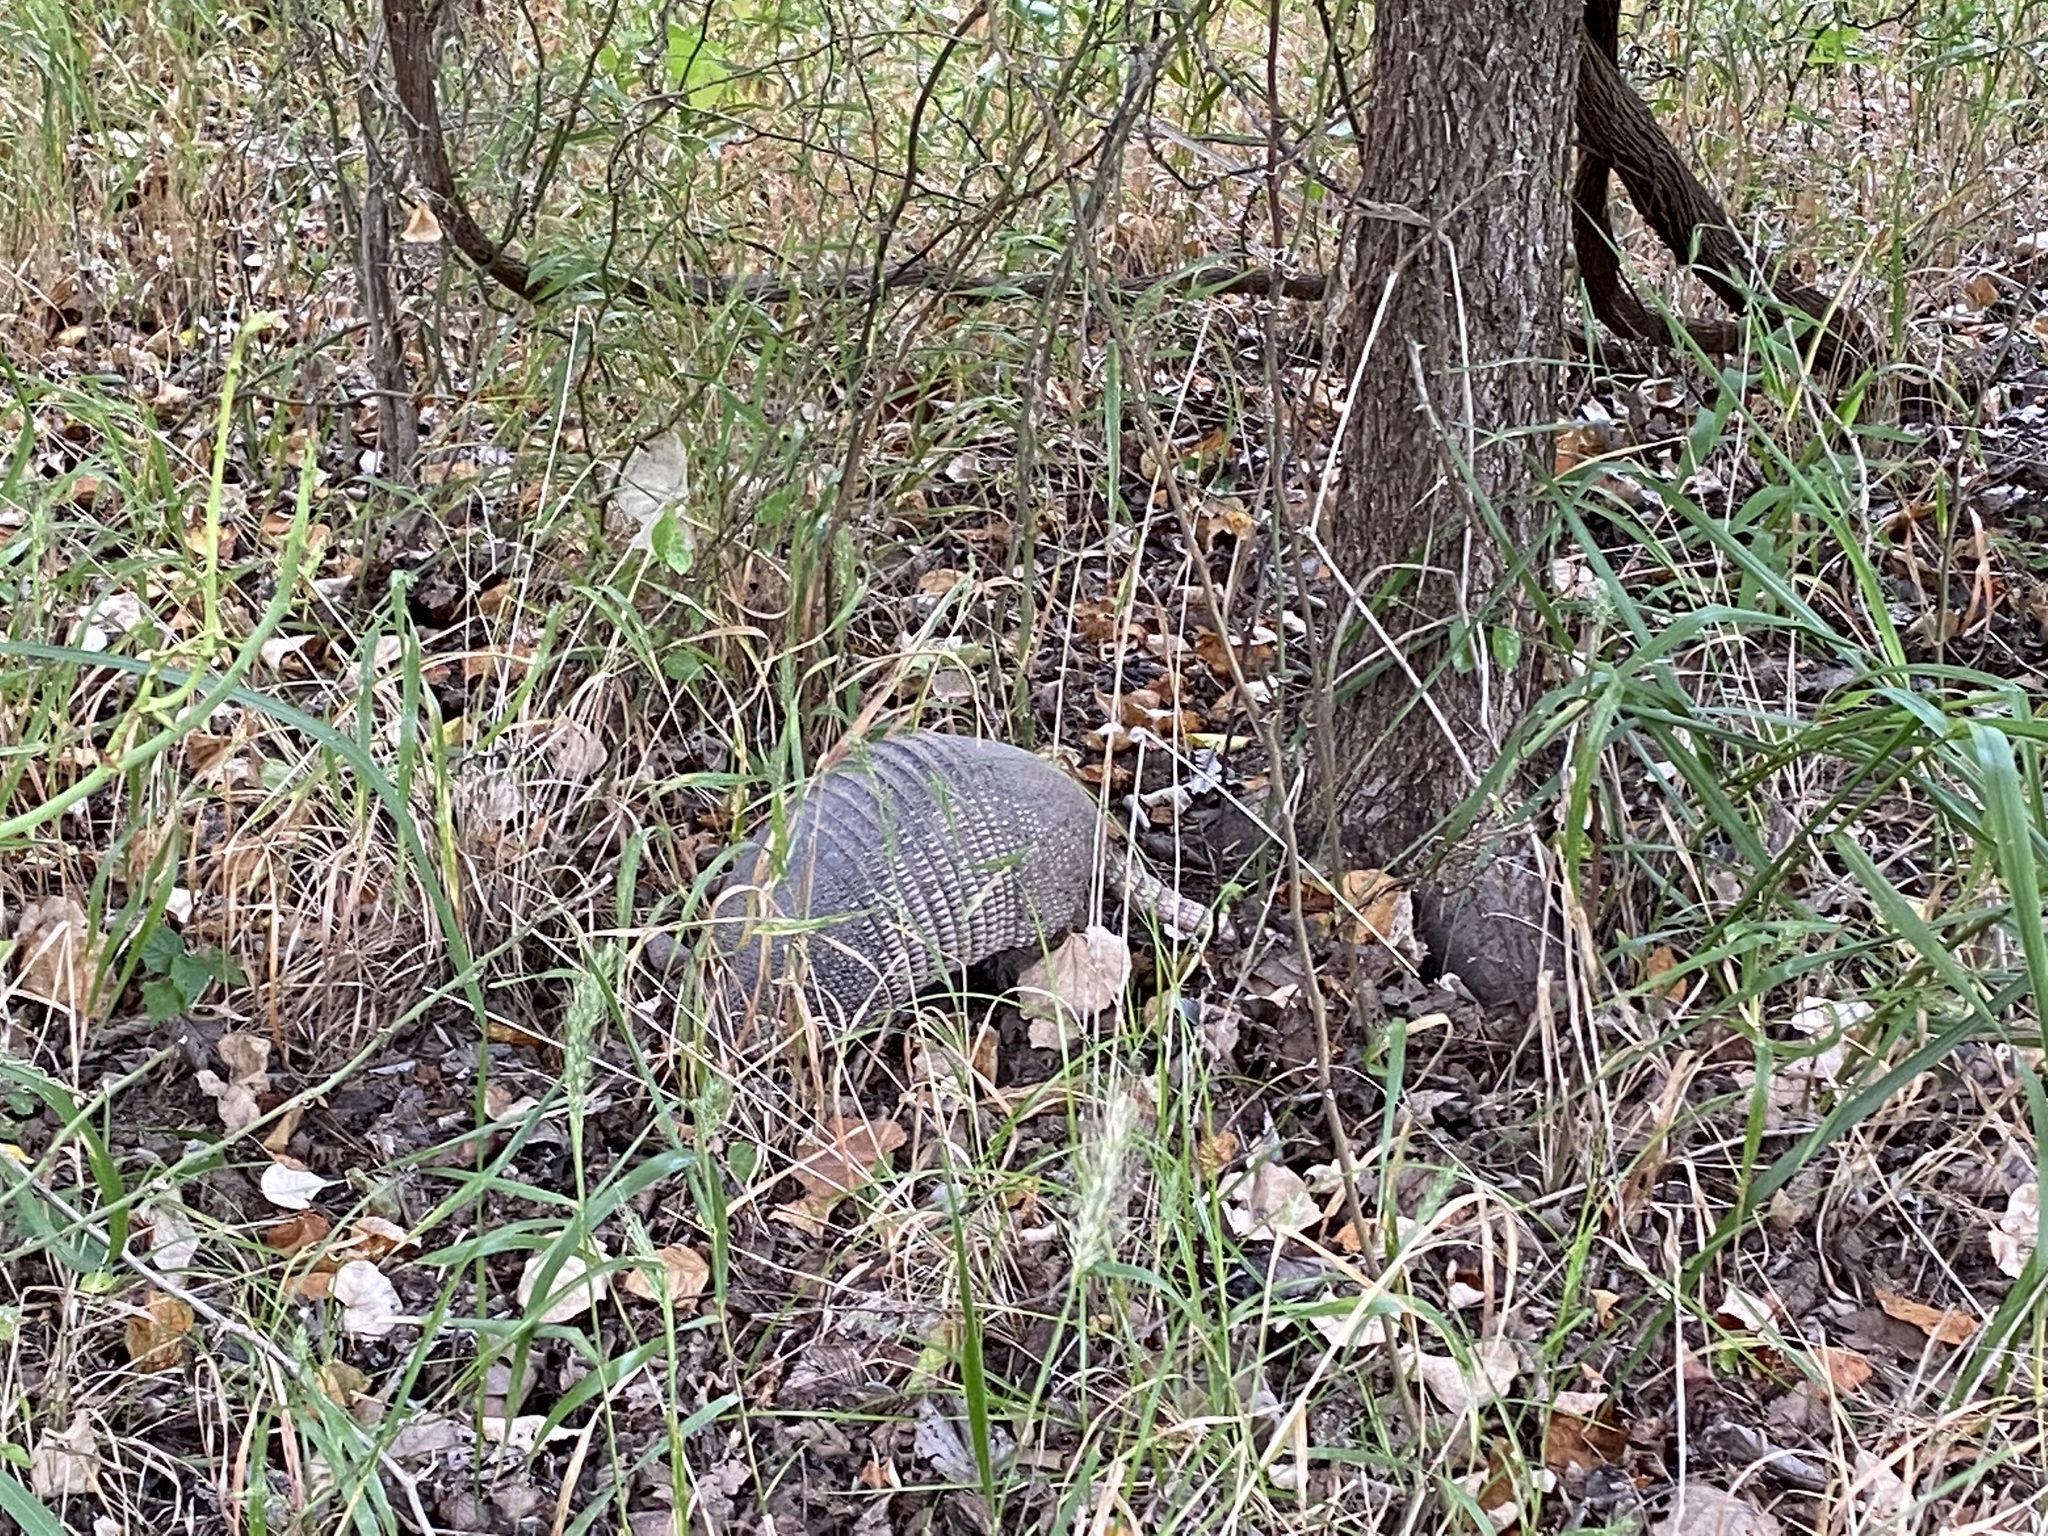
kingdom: Animalia
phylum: Chordata
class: Mammalia
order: Cingulata
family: Dasypodidae
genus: Dasypus
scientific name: Dasypus novemcinctus
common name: Nine-banded armadillo
